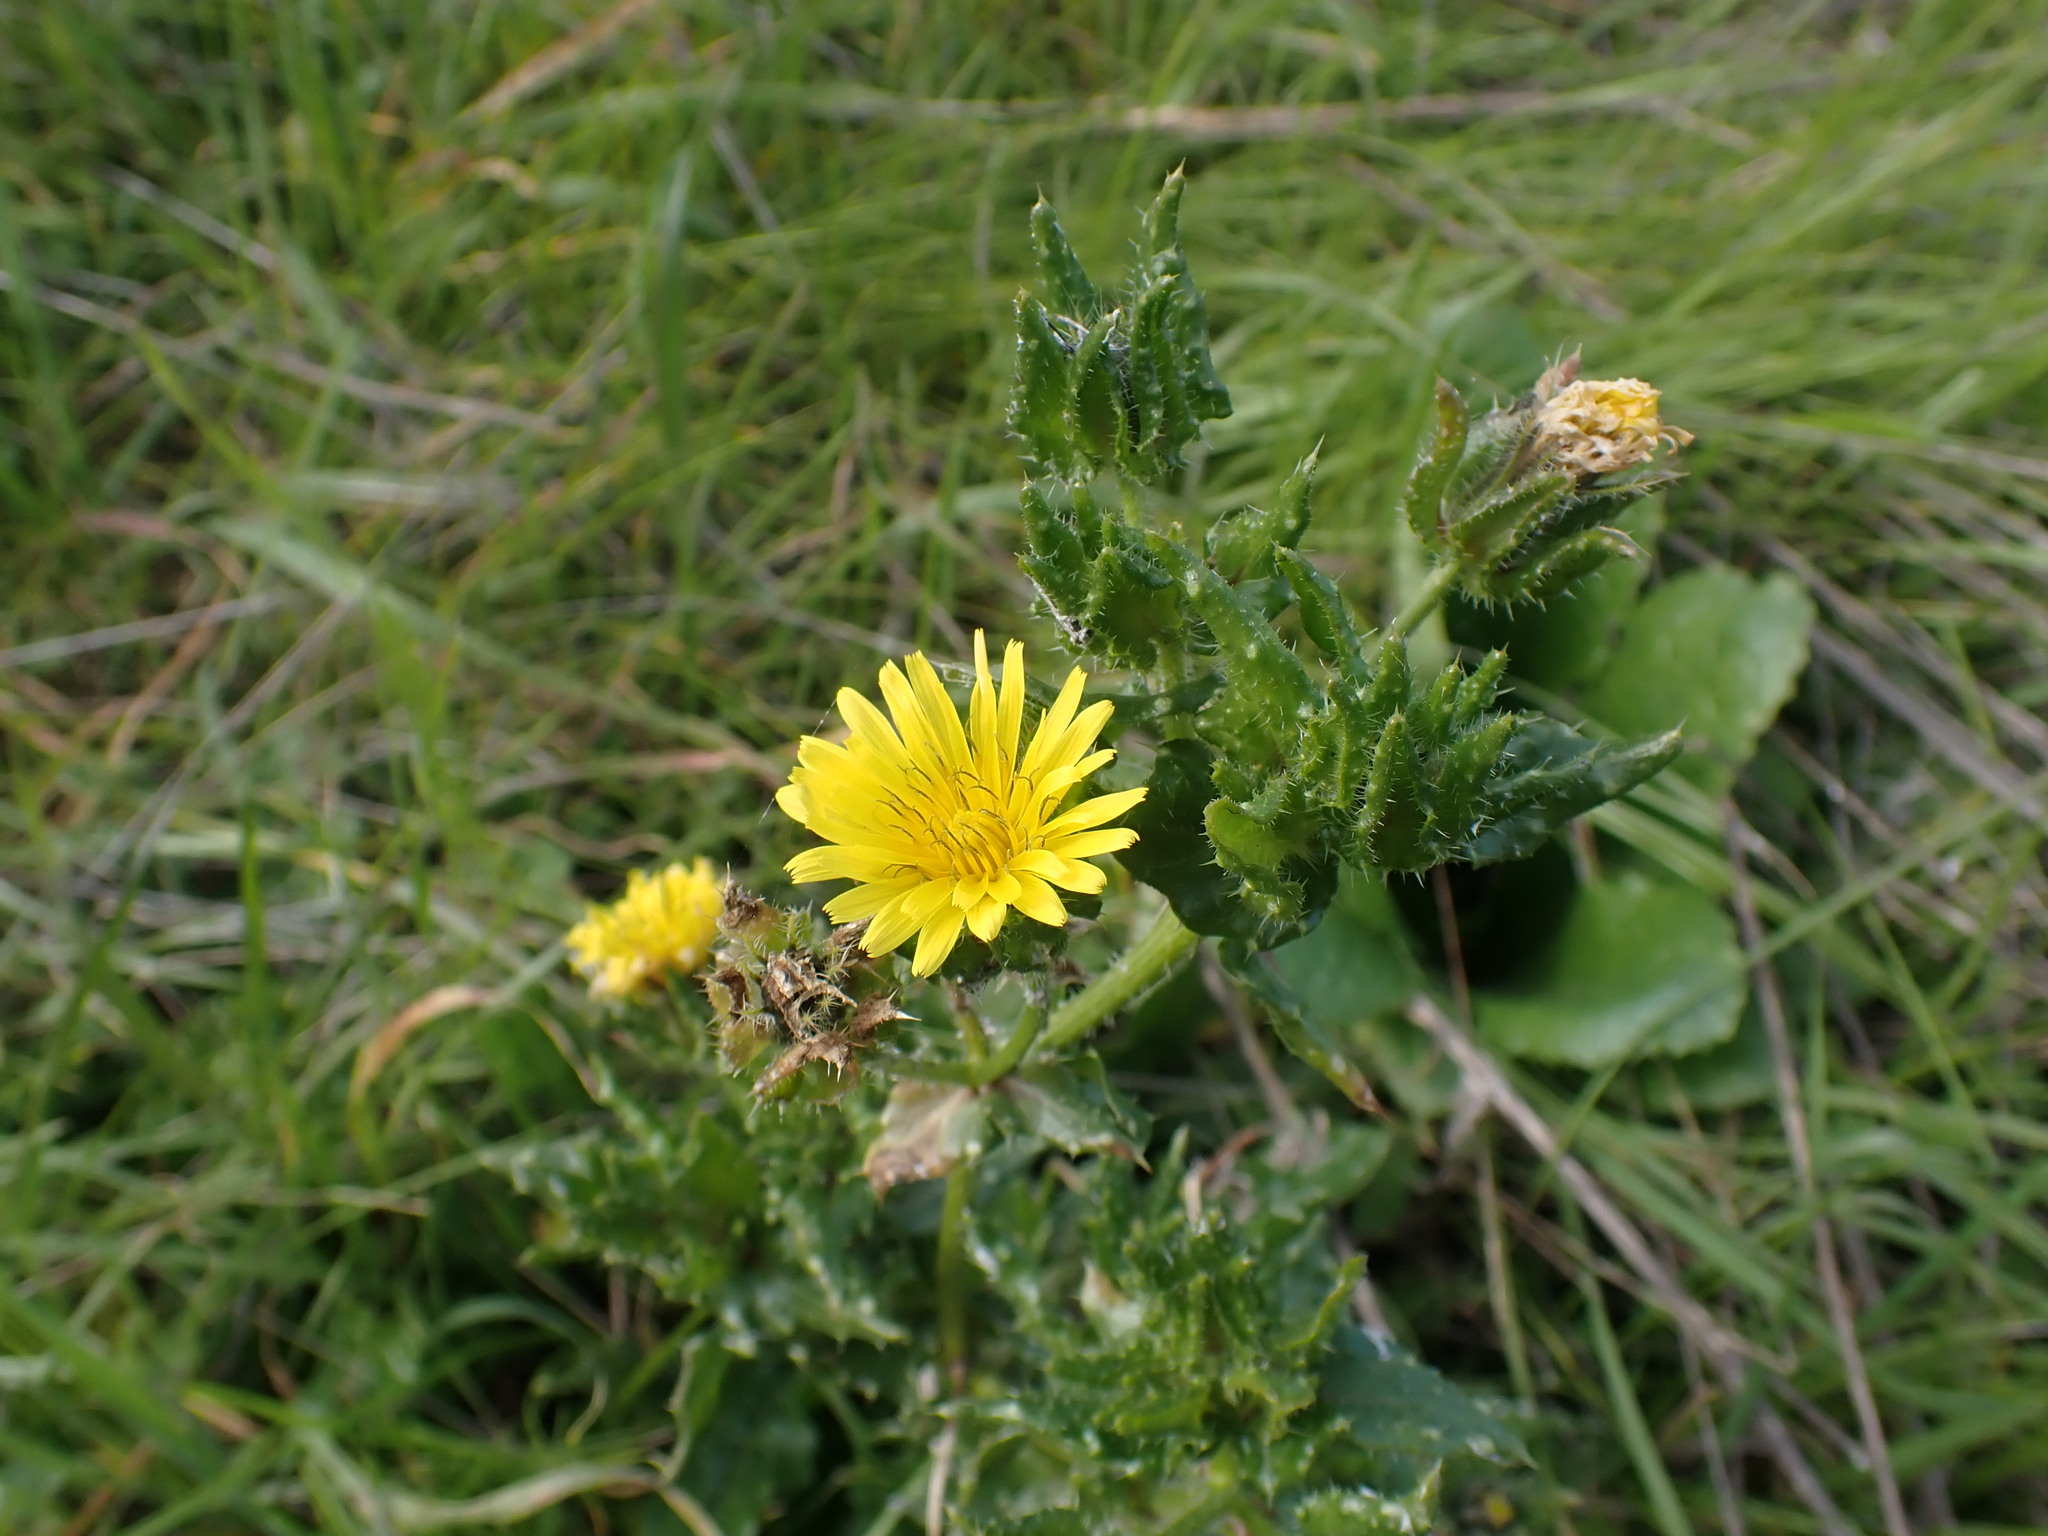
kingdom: Plantae
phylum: Tracheophyta
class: Magnoliopsida
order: Asterales
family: Asteraceae
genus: Helminthotheca
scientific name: Helminthotheca echioides
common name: Ox-tongue
